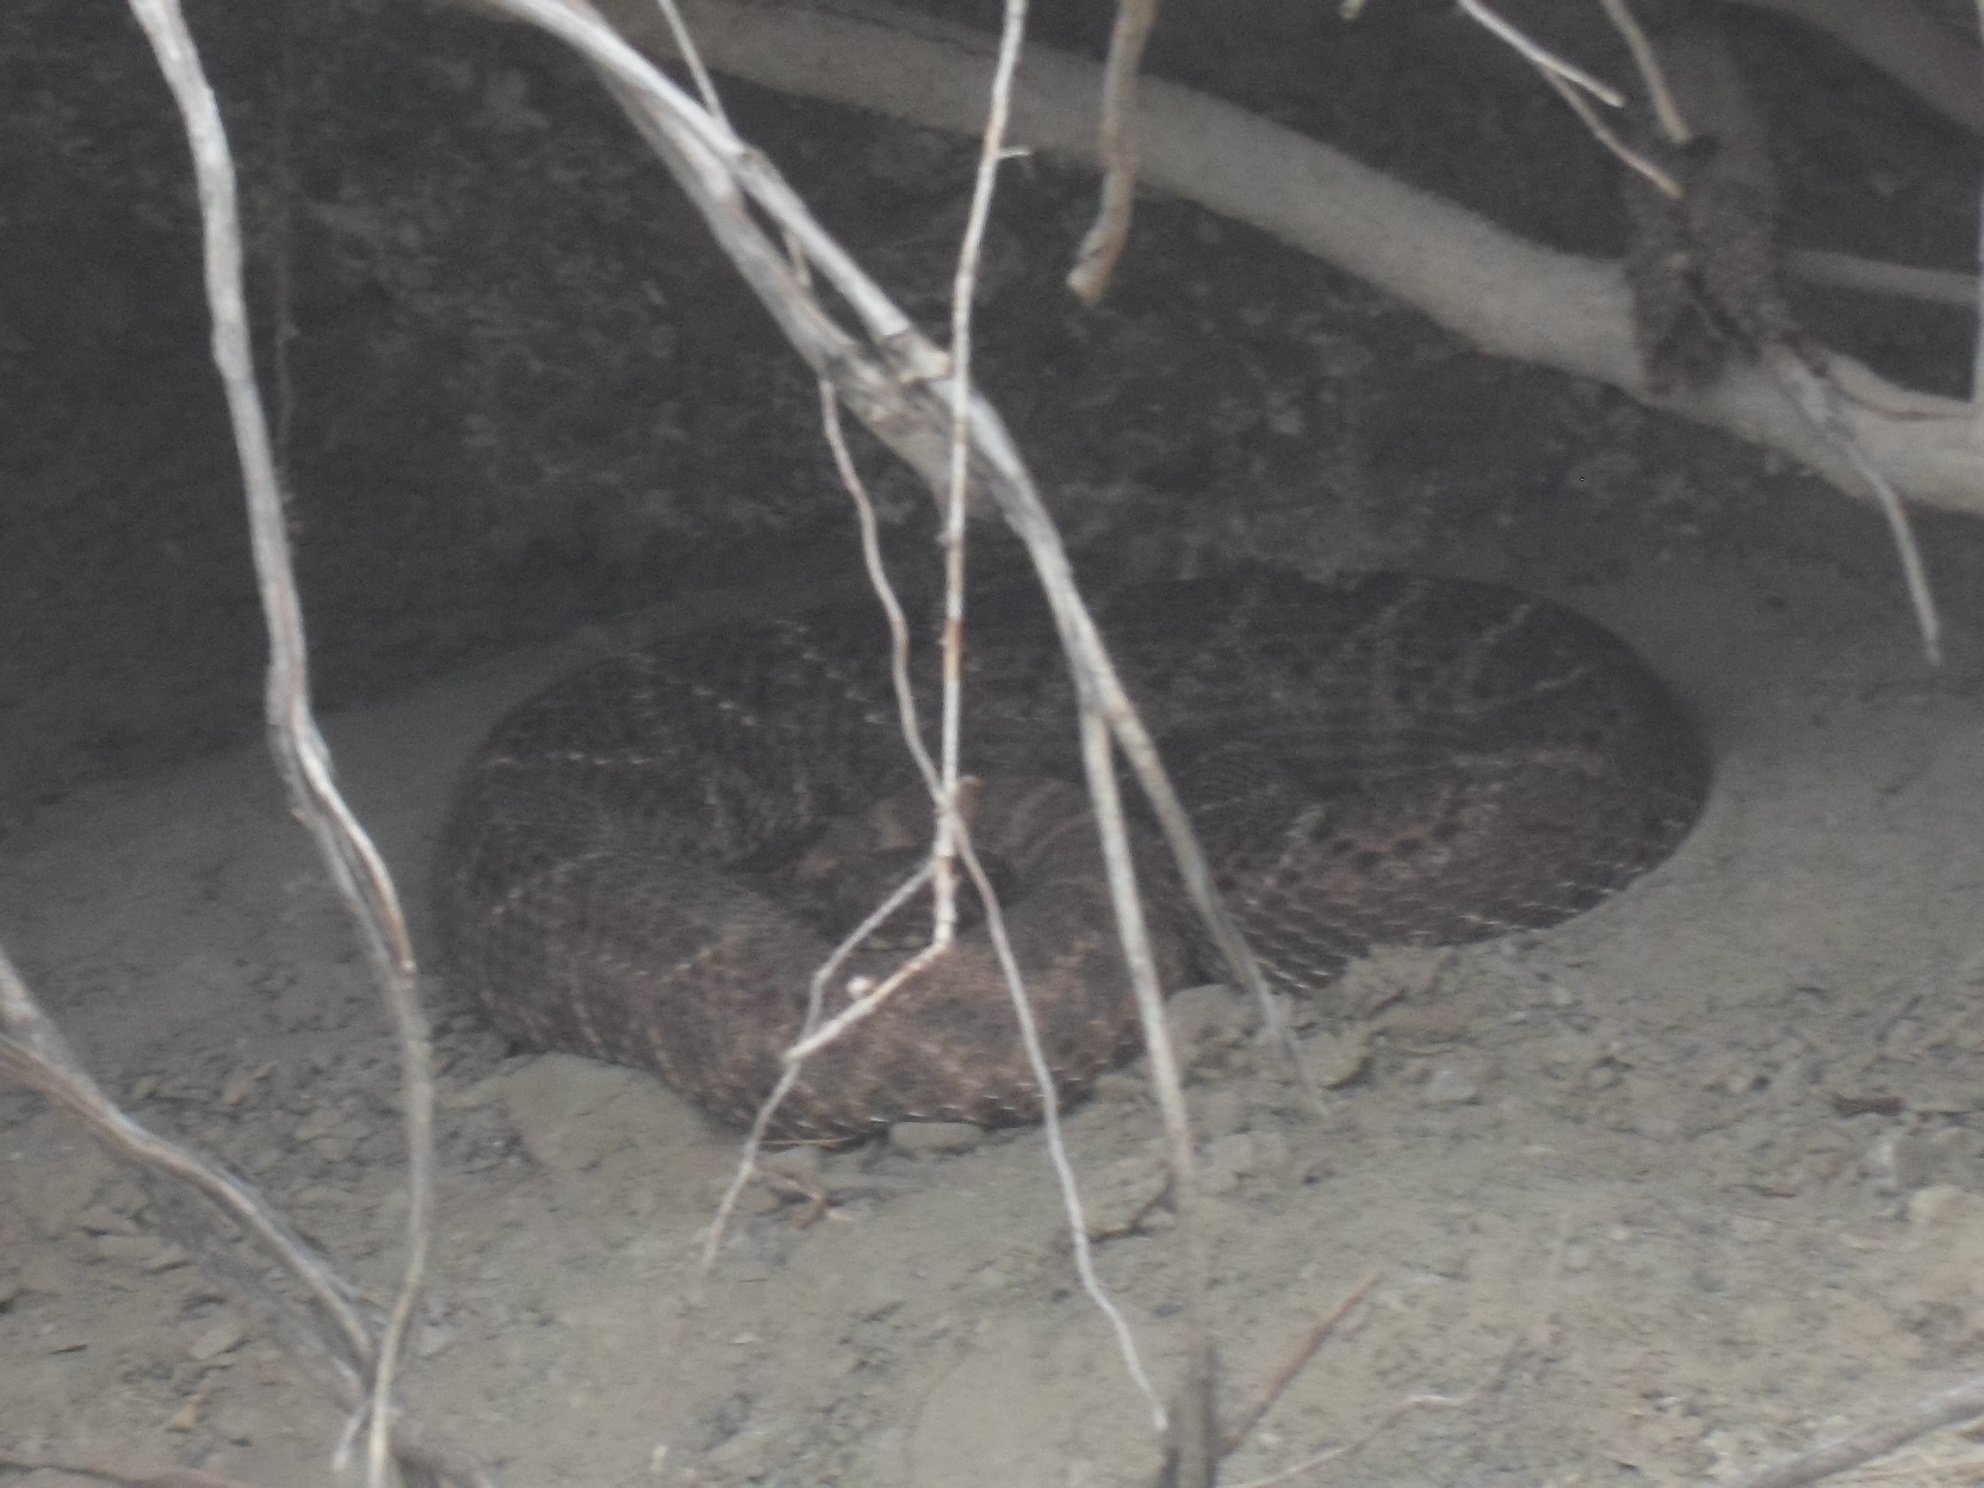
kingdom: Animalia
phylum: Chordata
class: Squamata
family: Viperidae
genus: Crotalus
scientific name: Crotalus atrox
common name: Western diamond-backed rattlesnake
